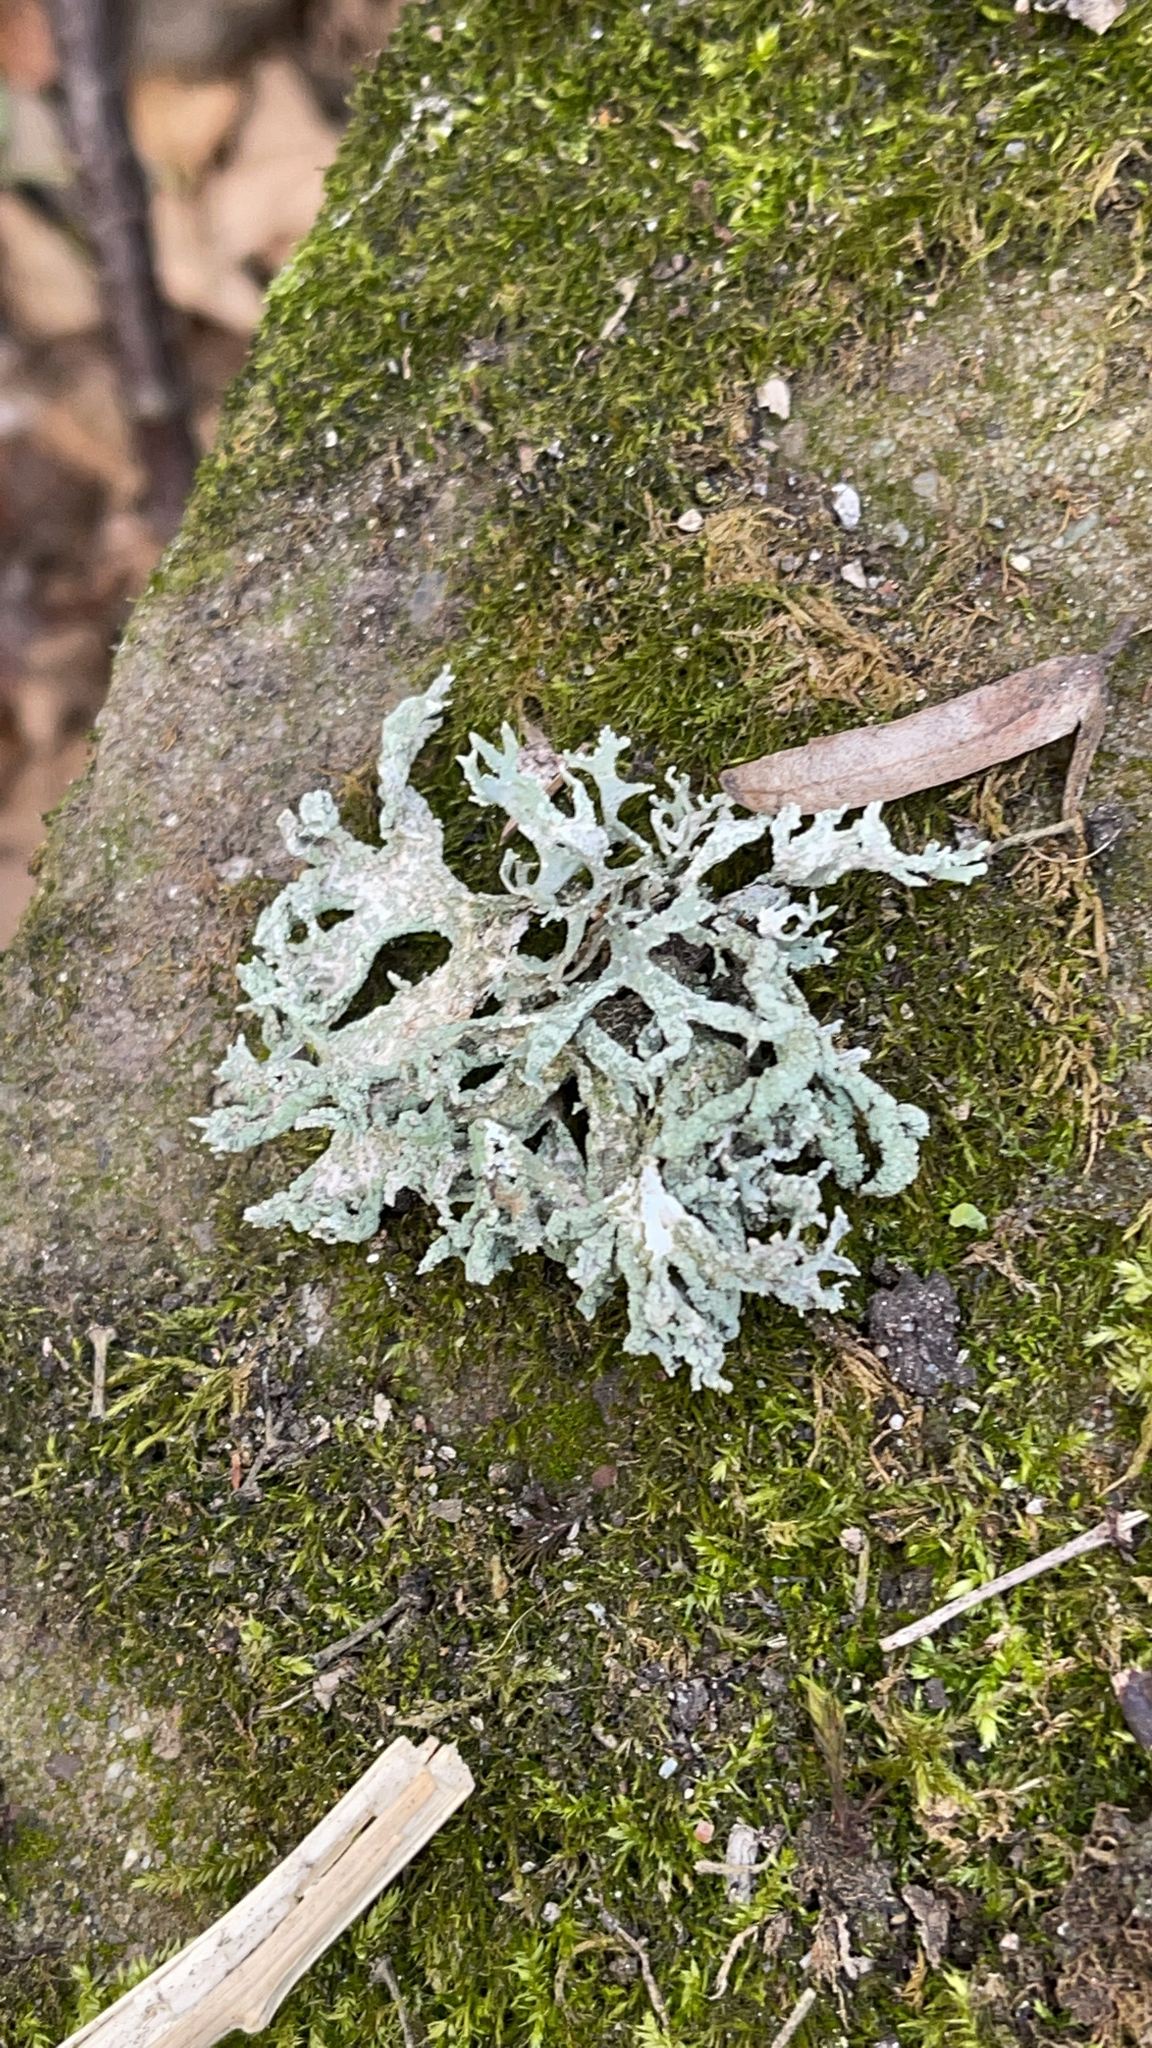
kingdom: Fungi
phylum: Ascomycota
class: Lecanoromycetes
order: Lecanorales
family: Parmeliaceae
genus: Evernia
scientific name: Evernia prunastri
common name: Oak moss
